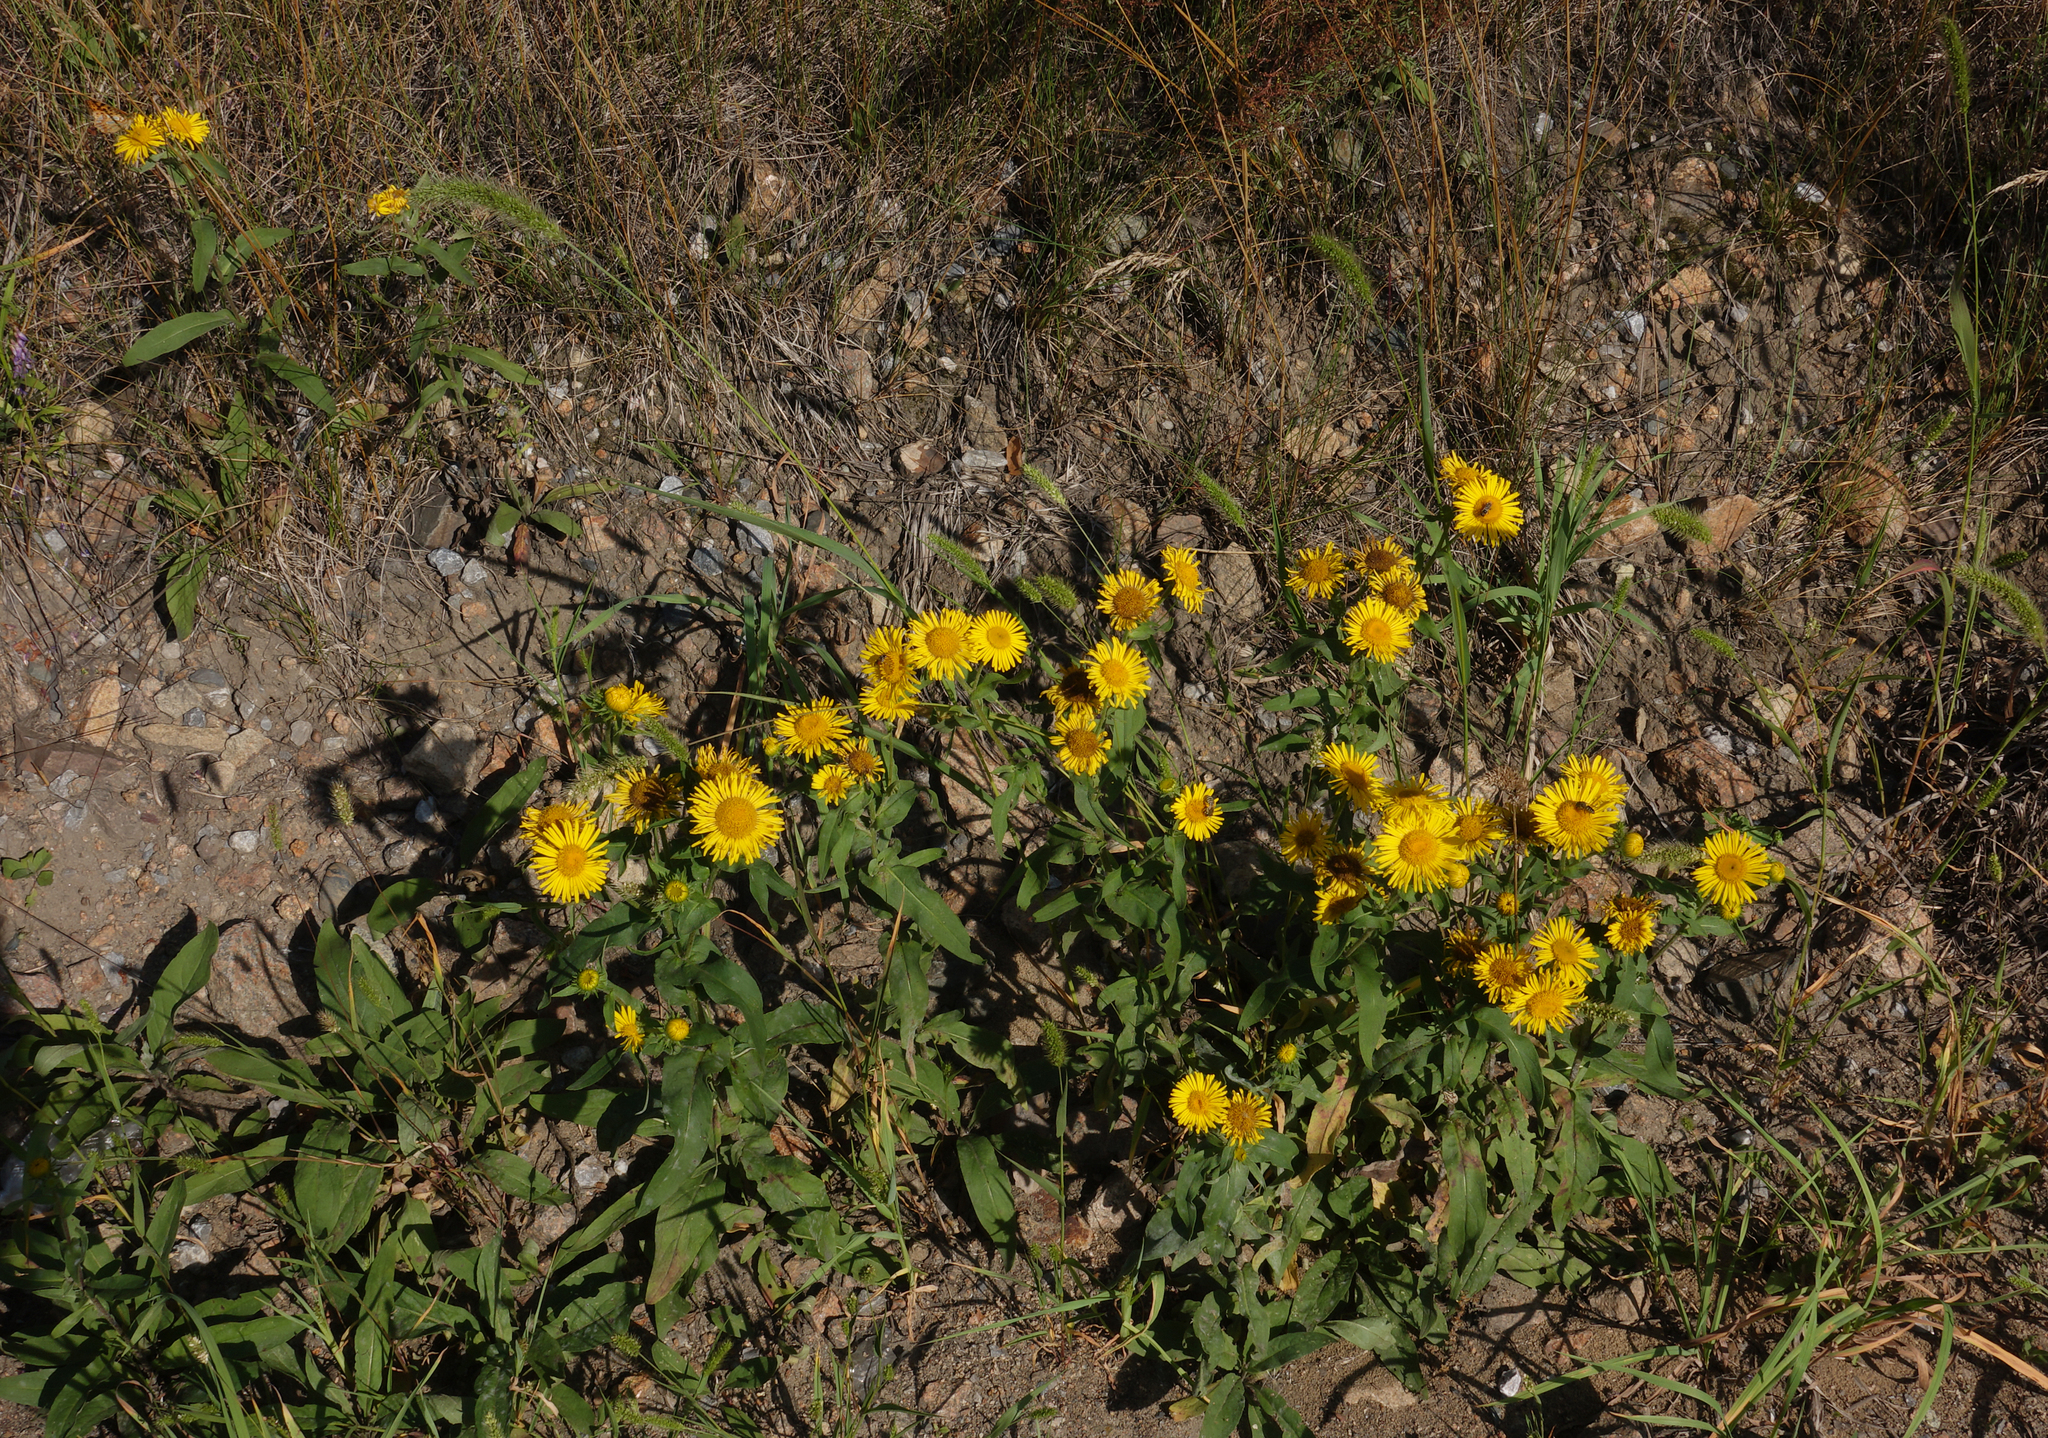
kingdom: Plantae
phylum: Tracheophyta
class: Magnoliopsida
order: Asterales
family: Asteraceae
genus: Pentanema
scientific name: Pentanema britannicum
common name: British elecampane
